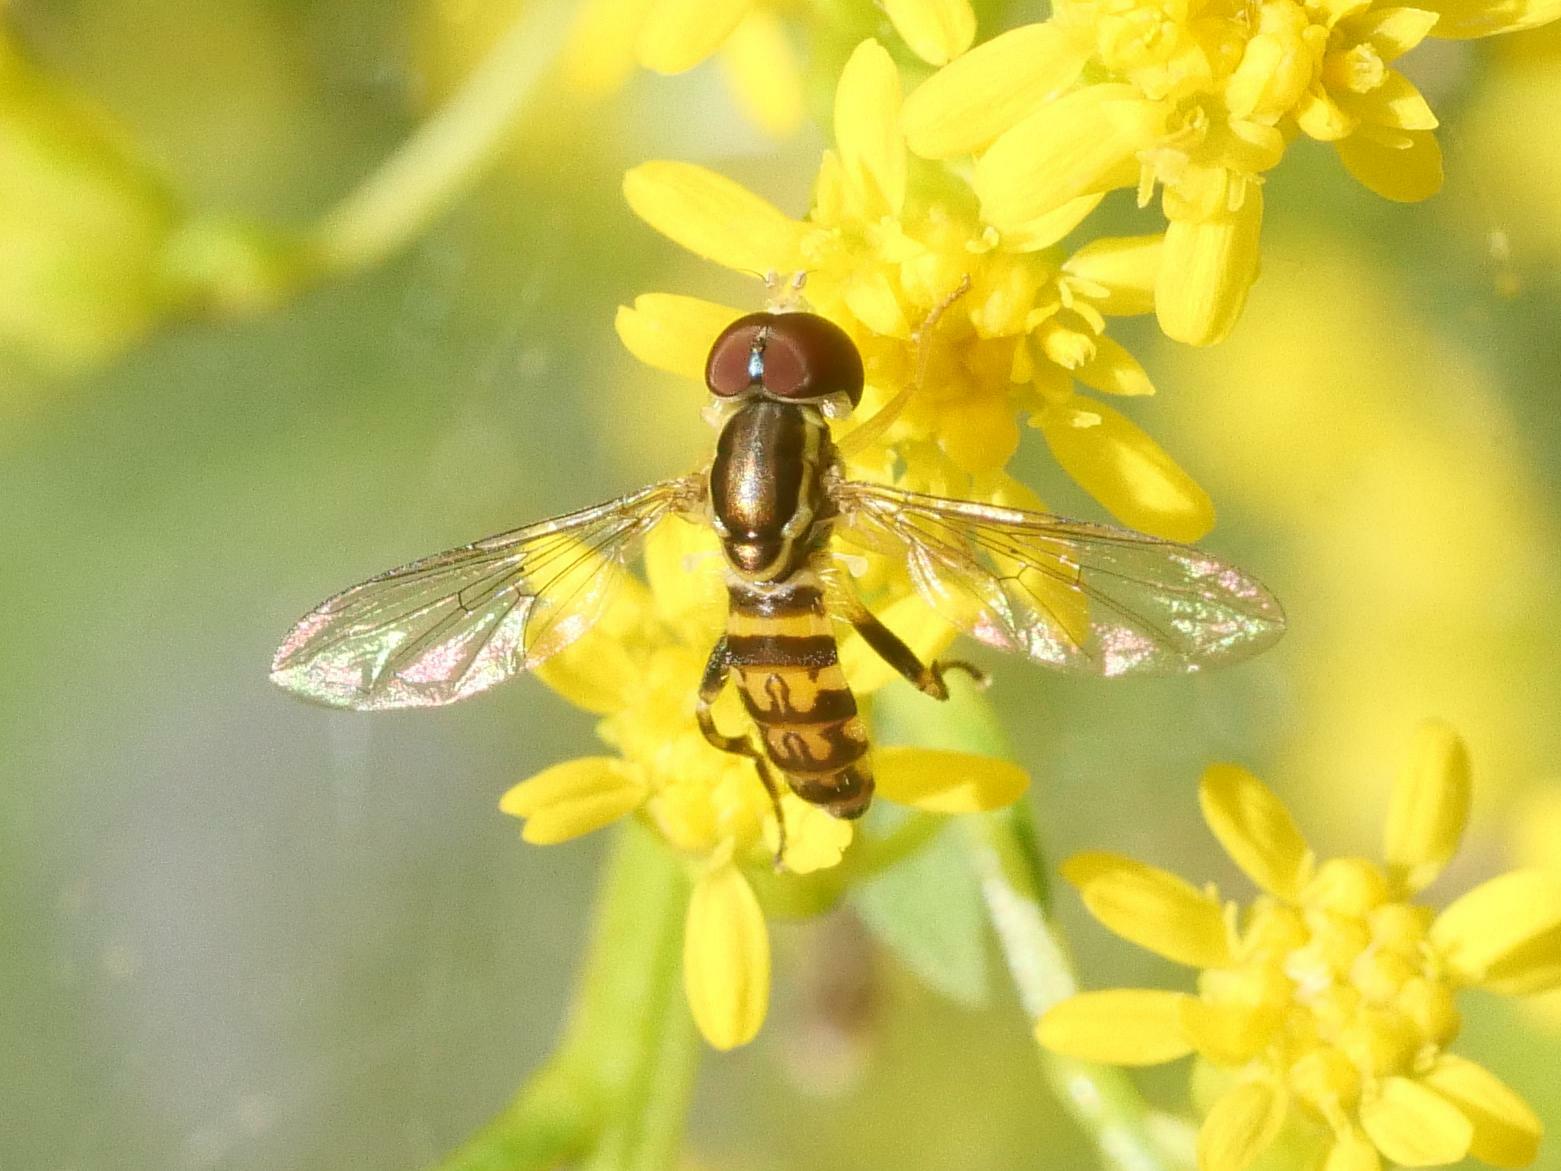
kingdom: Animalia
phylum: Arthropoda
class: Insecta
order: Diptera
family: Syrphidae
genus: Toxomerus
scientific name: Toxomerus geminatus
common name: Eastern calligrapher
